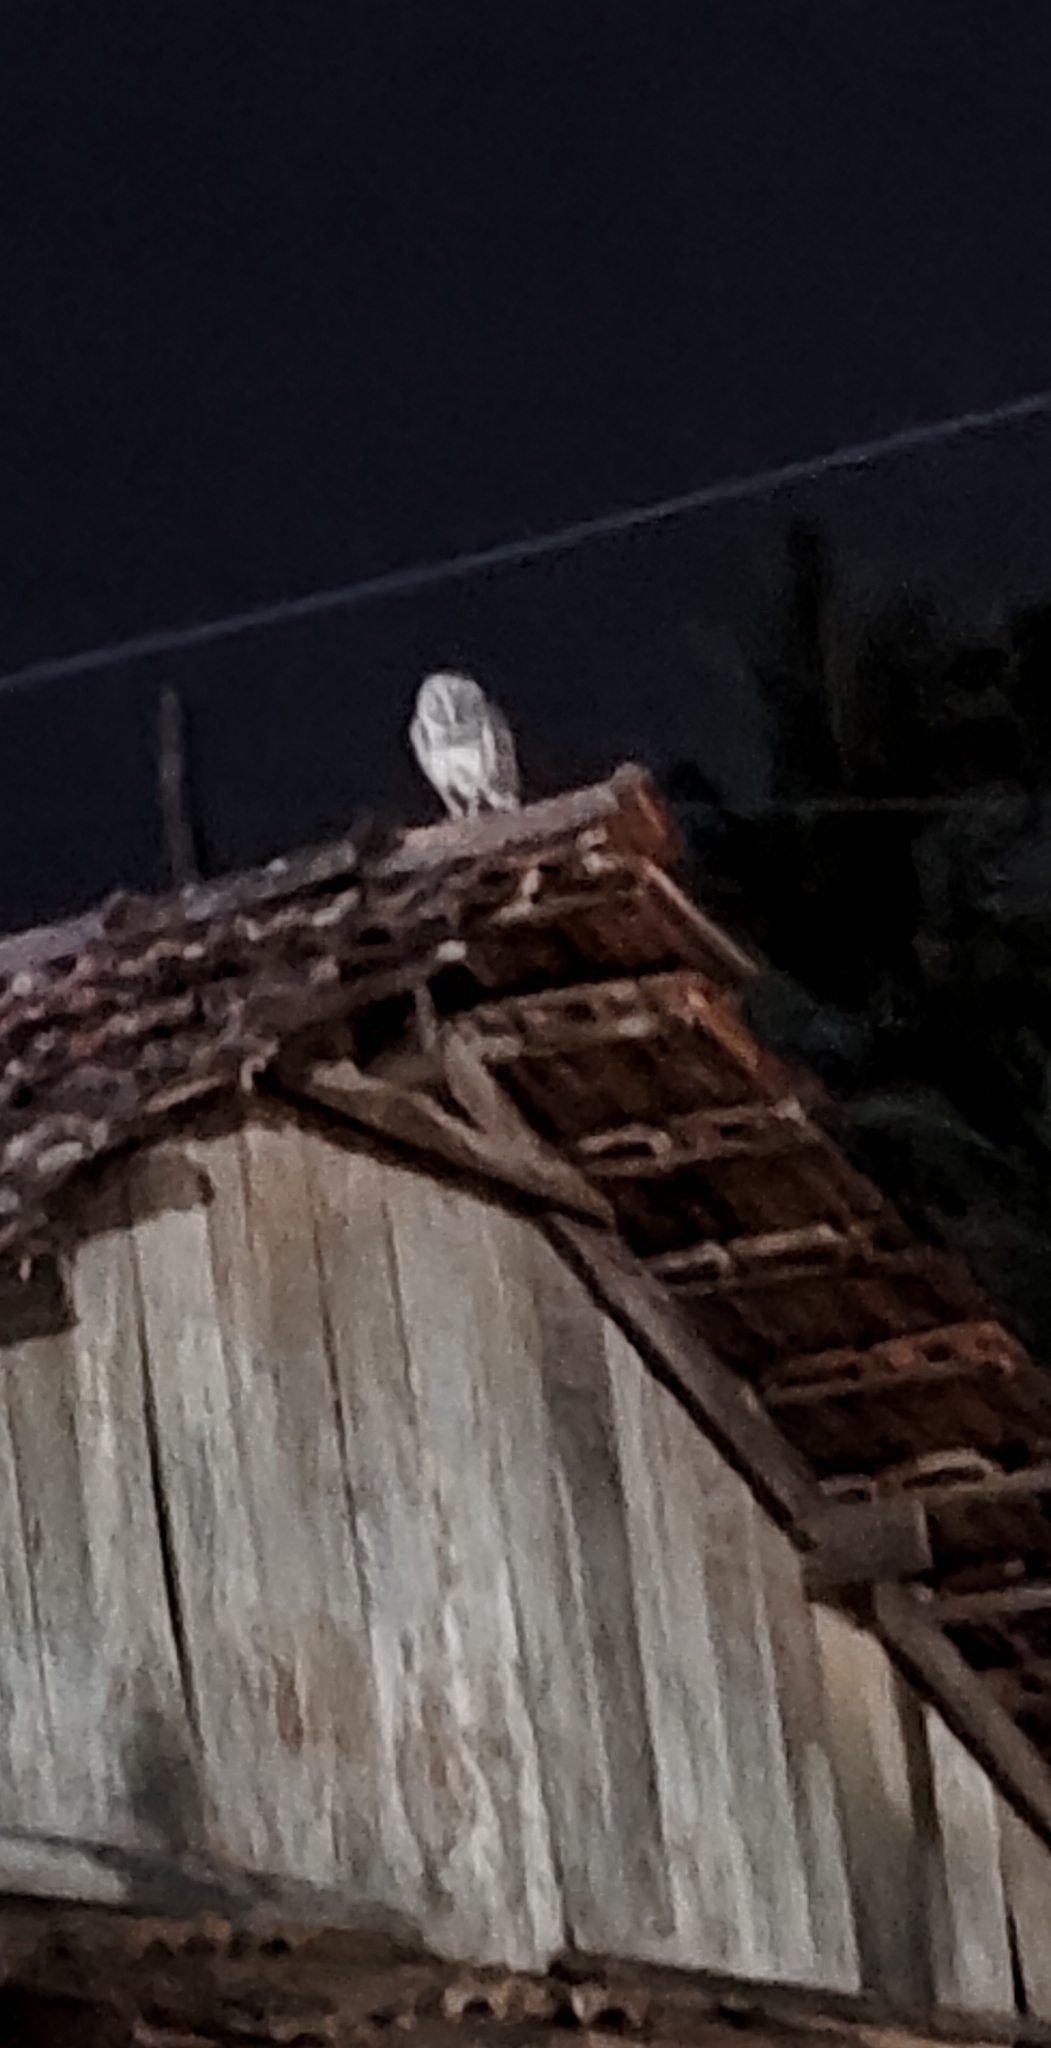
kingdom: Animalia
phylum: Chordata
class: Aves
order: Strigiformes
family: Tytonidae
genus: Tyto
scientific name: Tyto alba
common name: Barn owl
